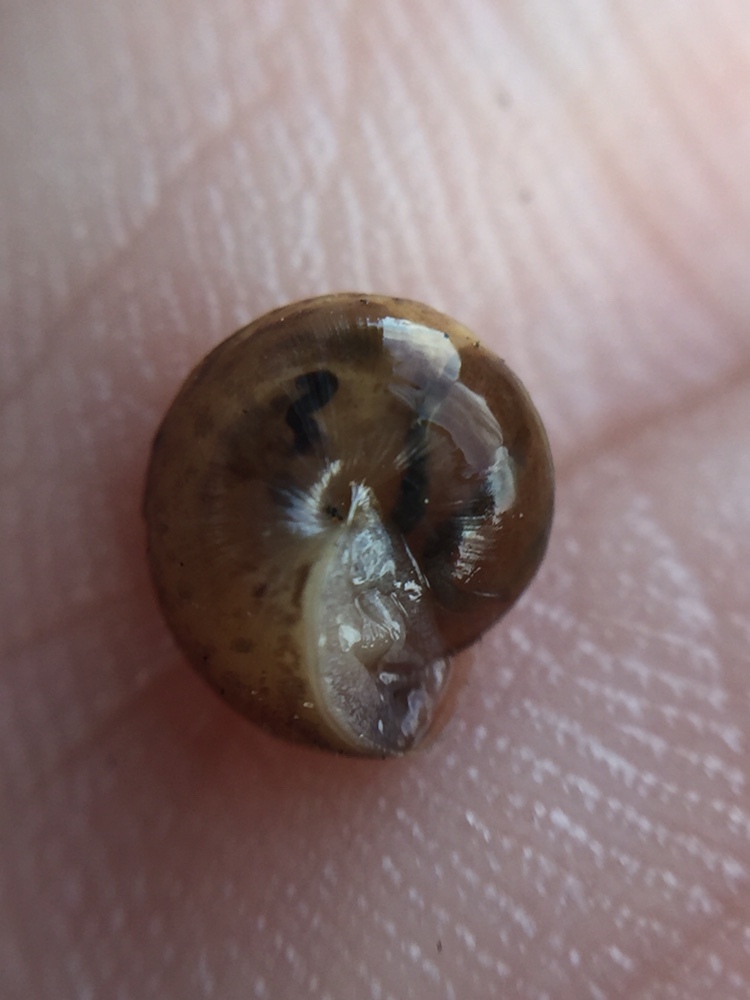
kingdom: Animalia
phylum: Mollusca
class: Gastropoda
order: Stylommatophora
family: Hygromiidae
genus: Hygromia
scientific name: Hygromia cinctella
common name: Girdled snail
